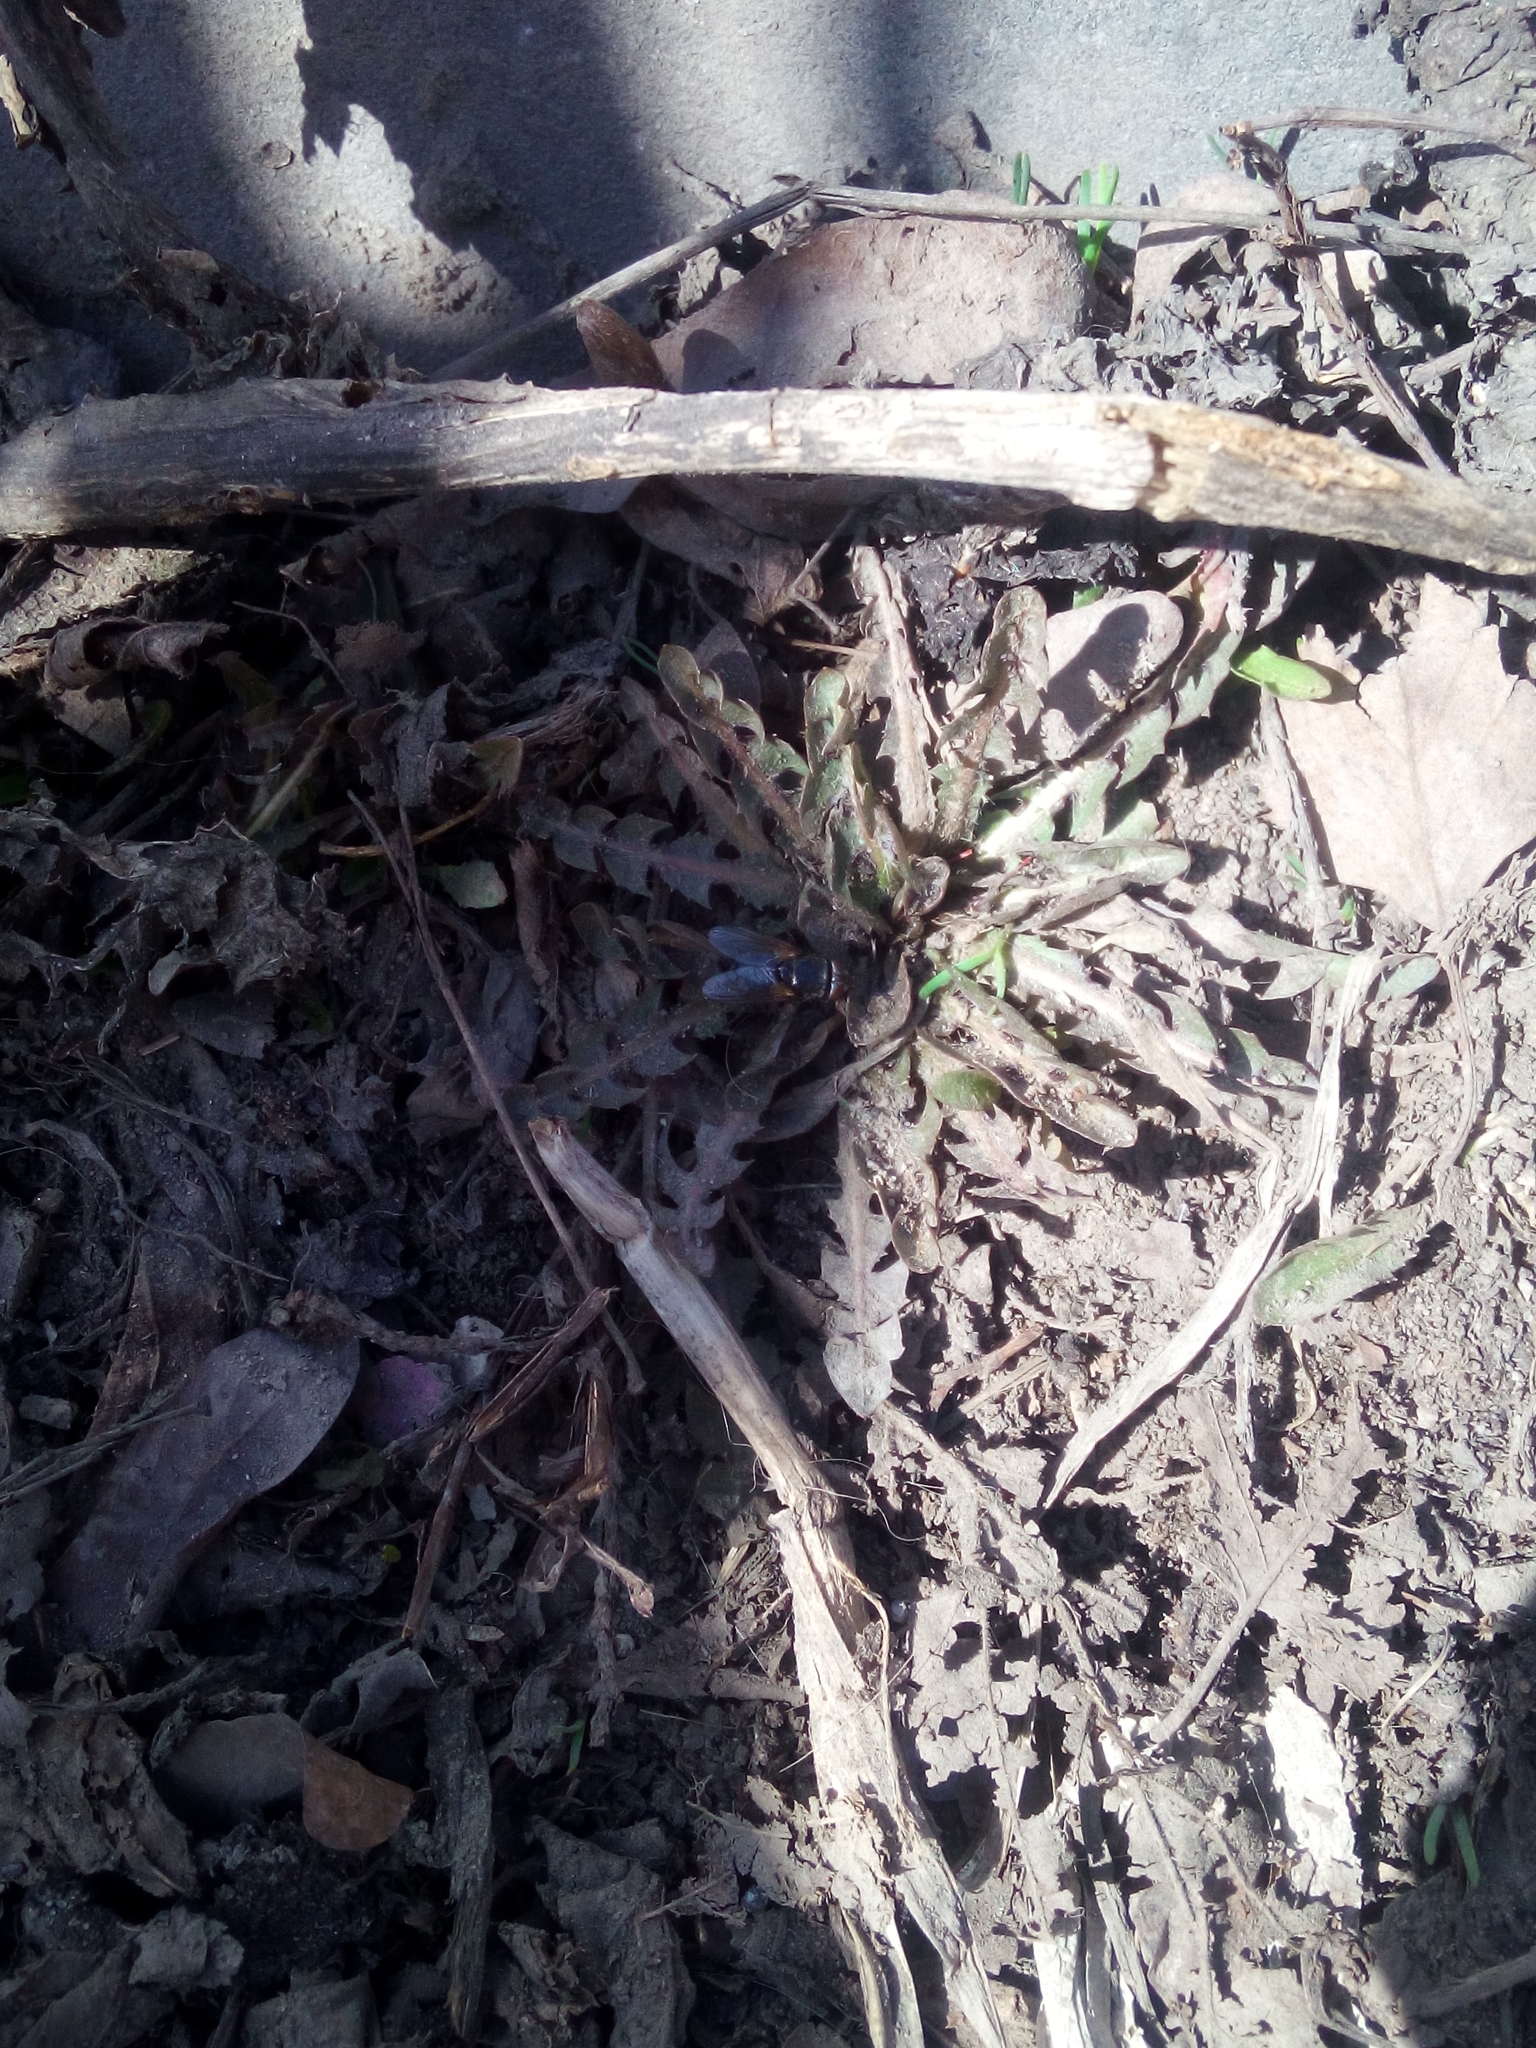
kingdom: Plantae
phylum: Tracheophyta
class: Magnoliopsida
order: Asterales
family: Asteraceae
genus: Taraxacum
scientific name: Taraxacum officinale
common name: Common dandelion
